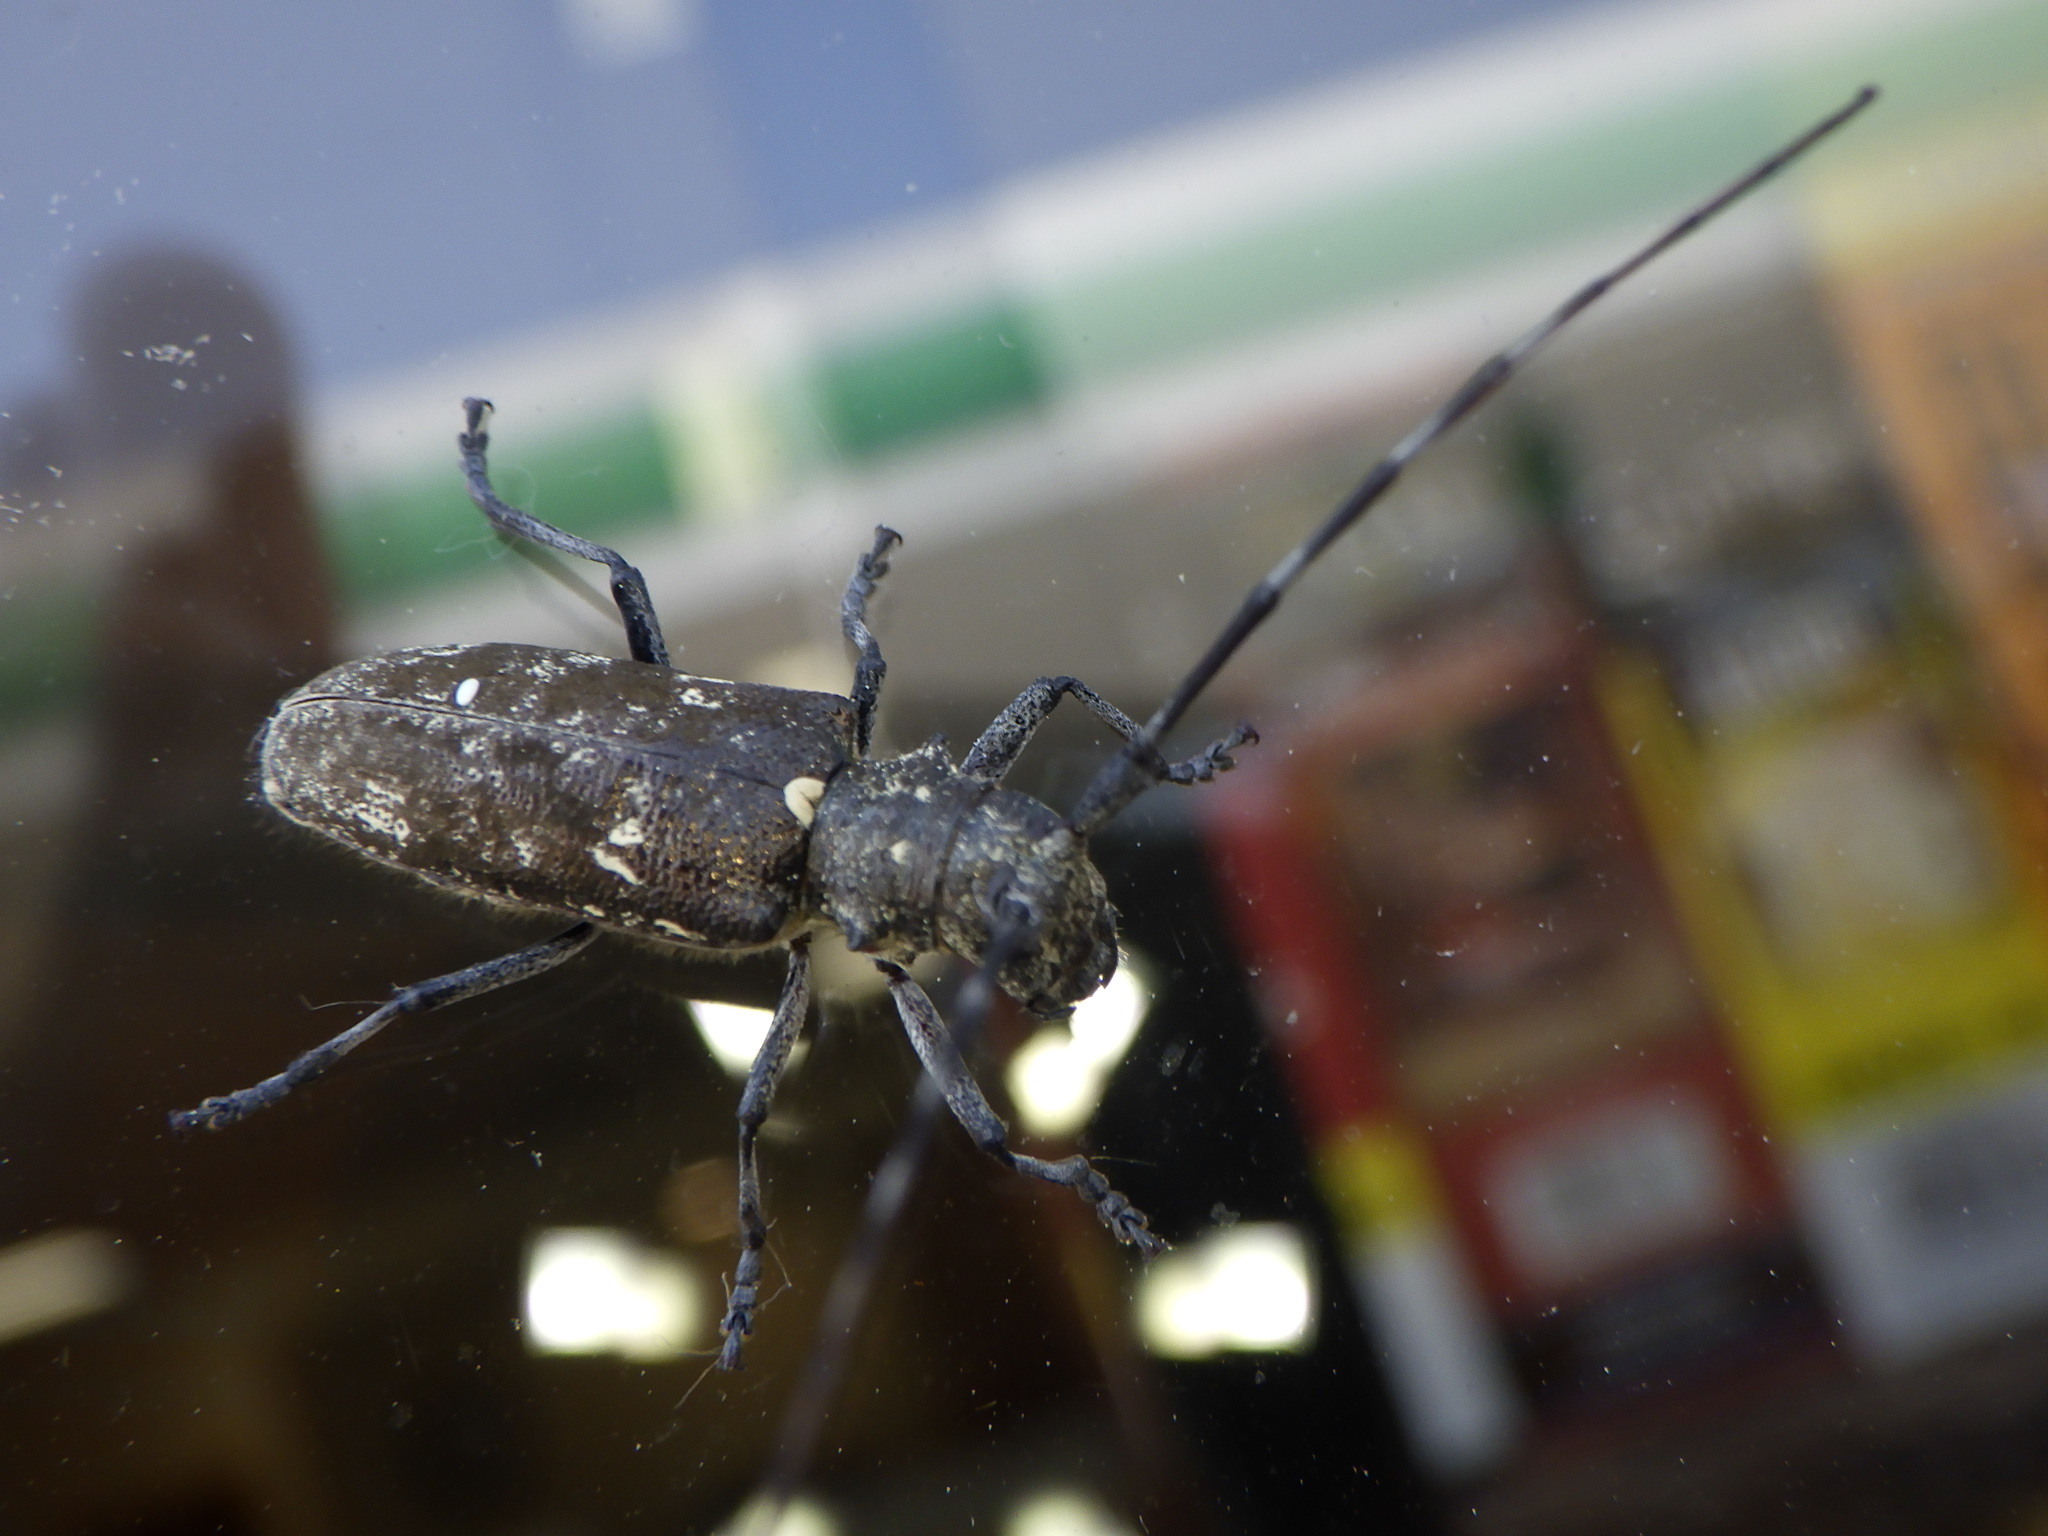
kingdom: Animalia
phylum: Arthropoda
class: Insecta
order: Coleoptera
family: Cerambycidae
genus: Monochamus
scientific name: Monochamus scutellatus
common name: White-spotted sawyer beetle
